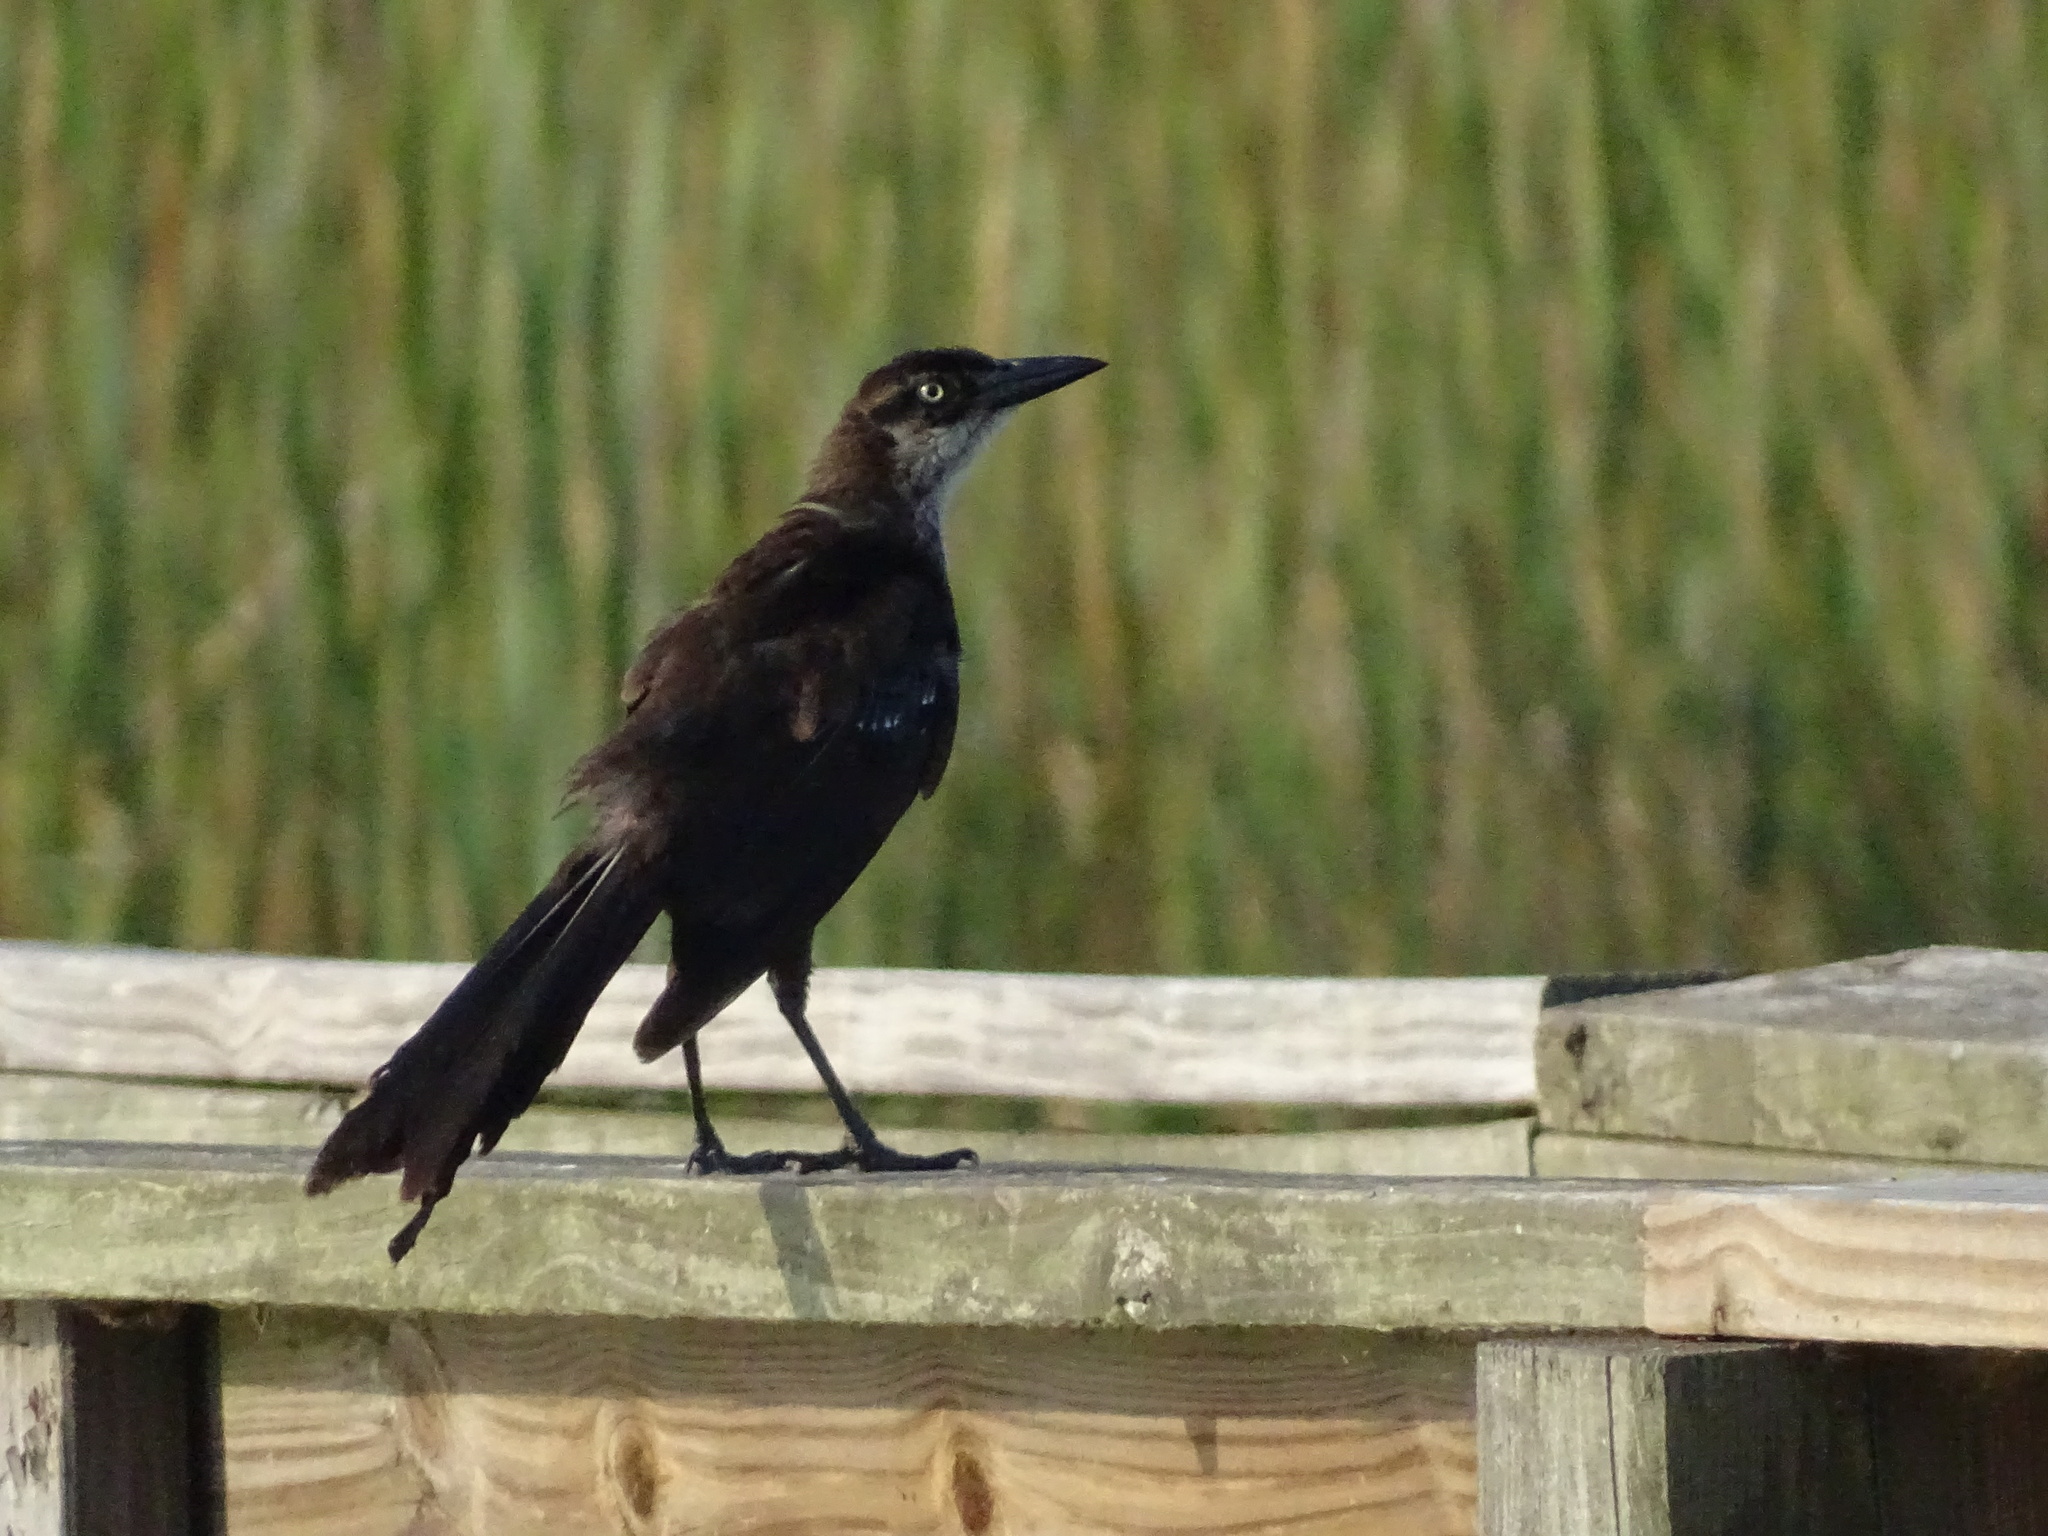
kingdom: Animalia
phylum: Chordata
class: Aves
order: Passeriformes
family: Icteridae
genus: Quiscalus
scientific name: Quiscalus mexicanus
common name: Great-tailed grackle
